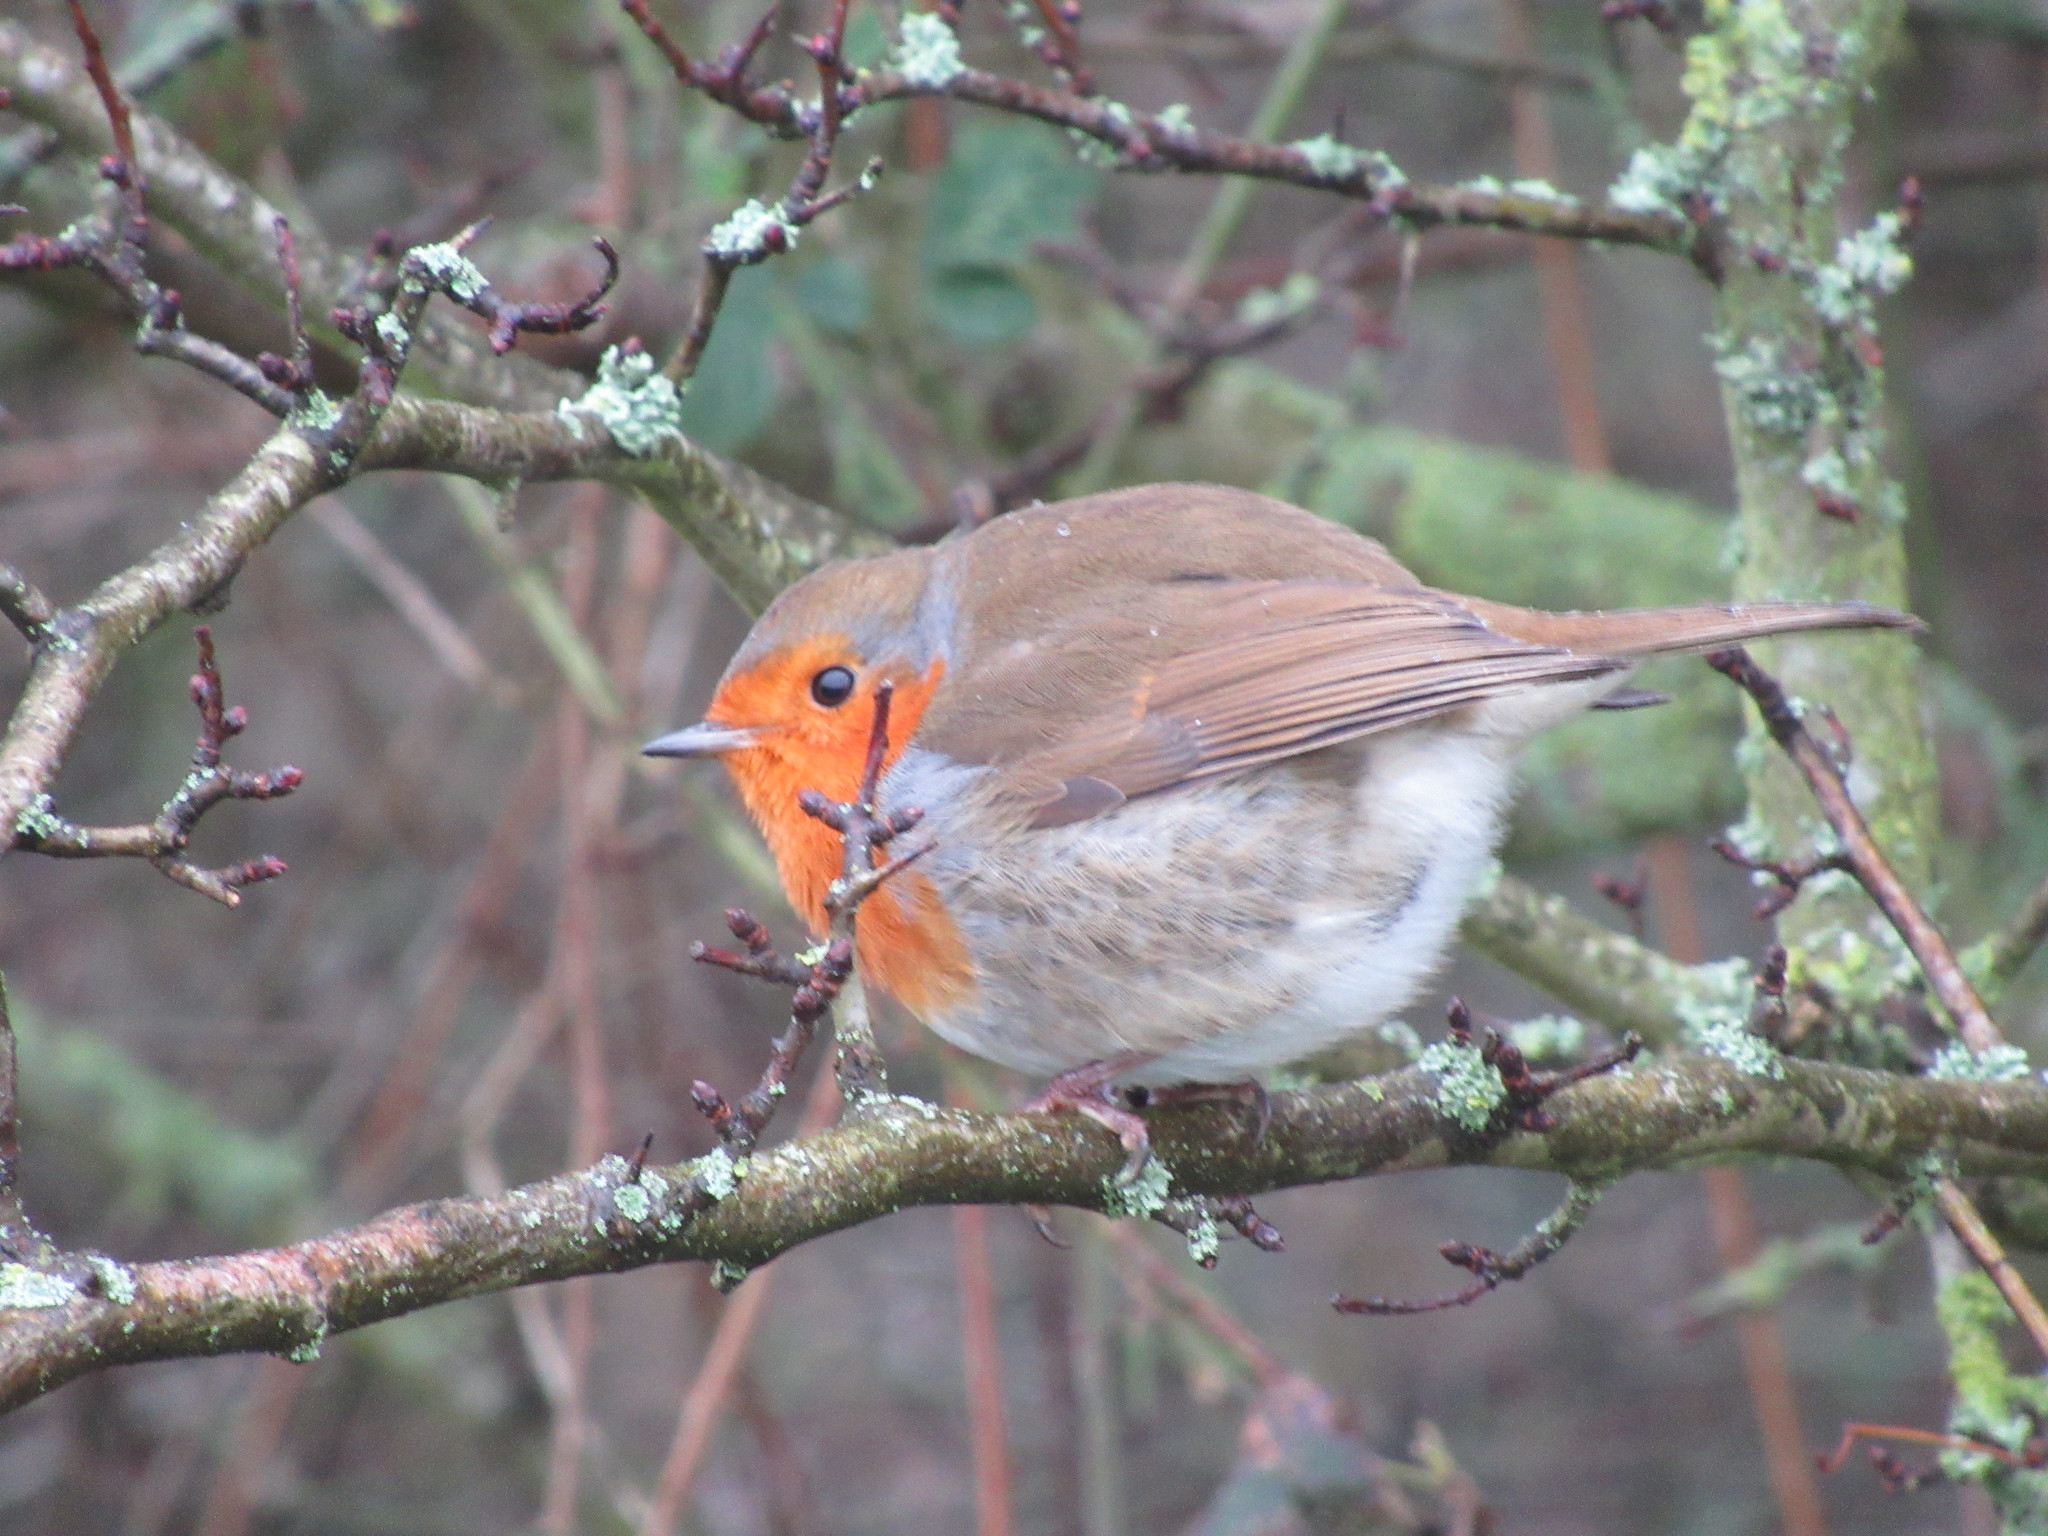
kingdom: Animalia
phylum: Chordata
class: Aves
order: Passeriformes
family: Muscicapidae
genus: Erithacus
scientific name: Erithacus rubecula
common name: European robin
